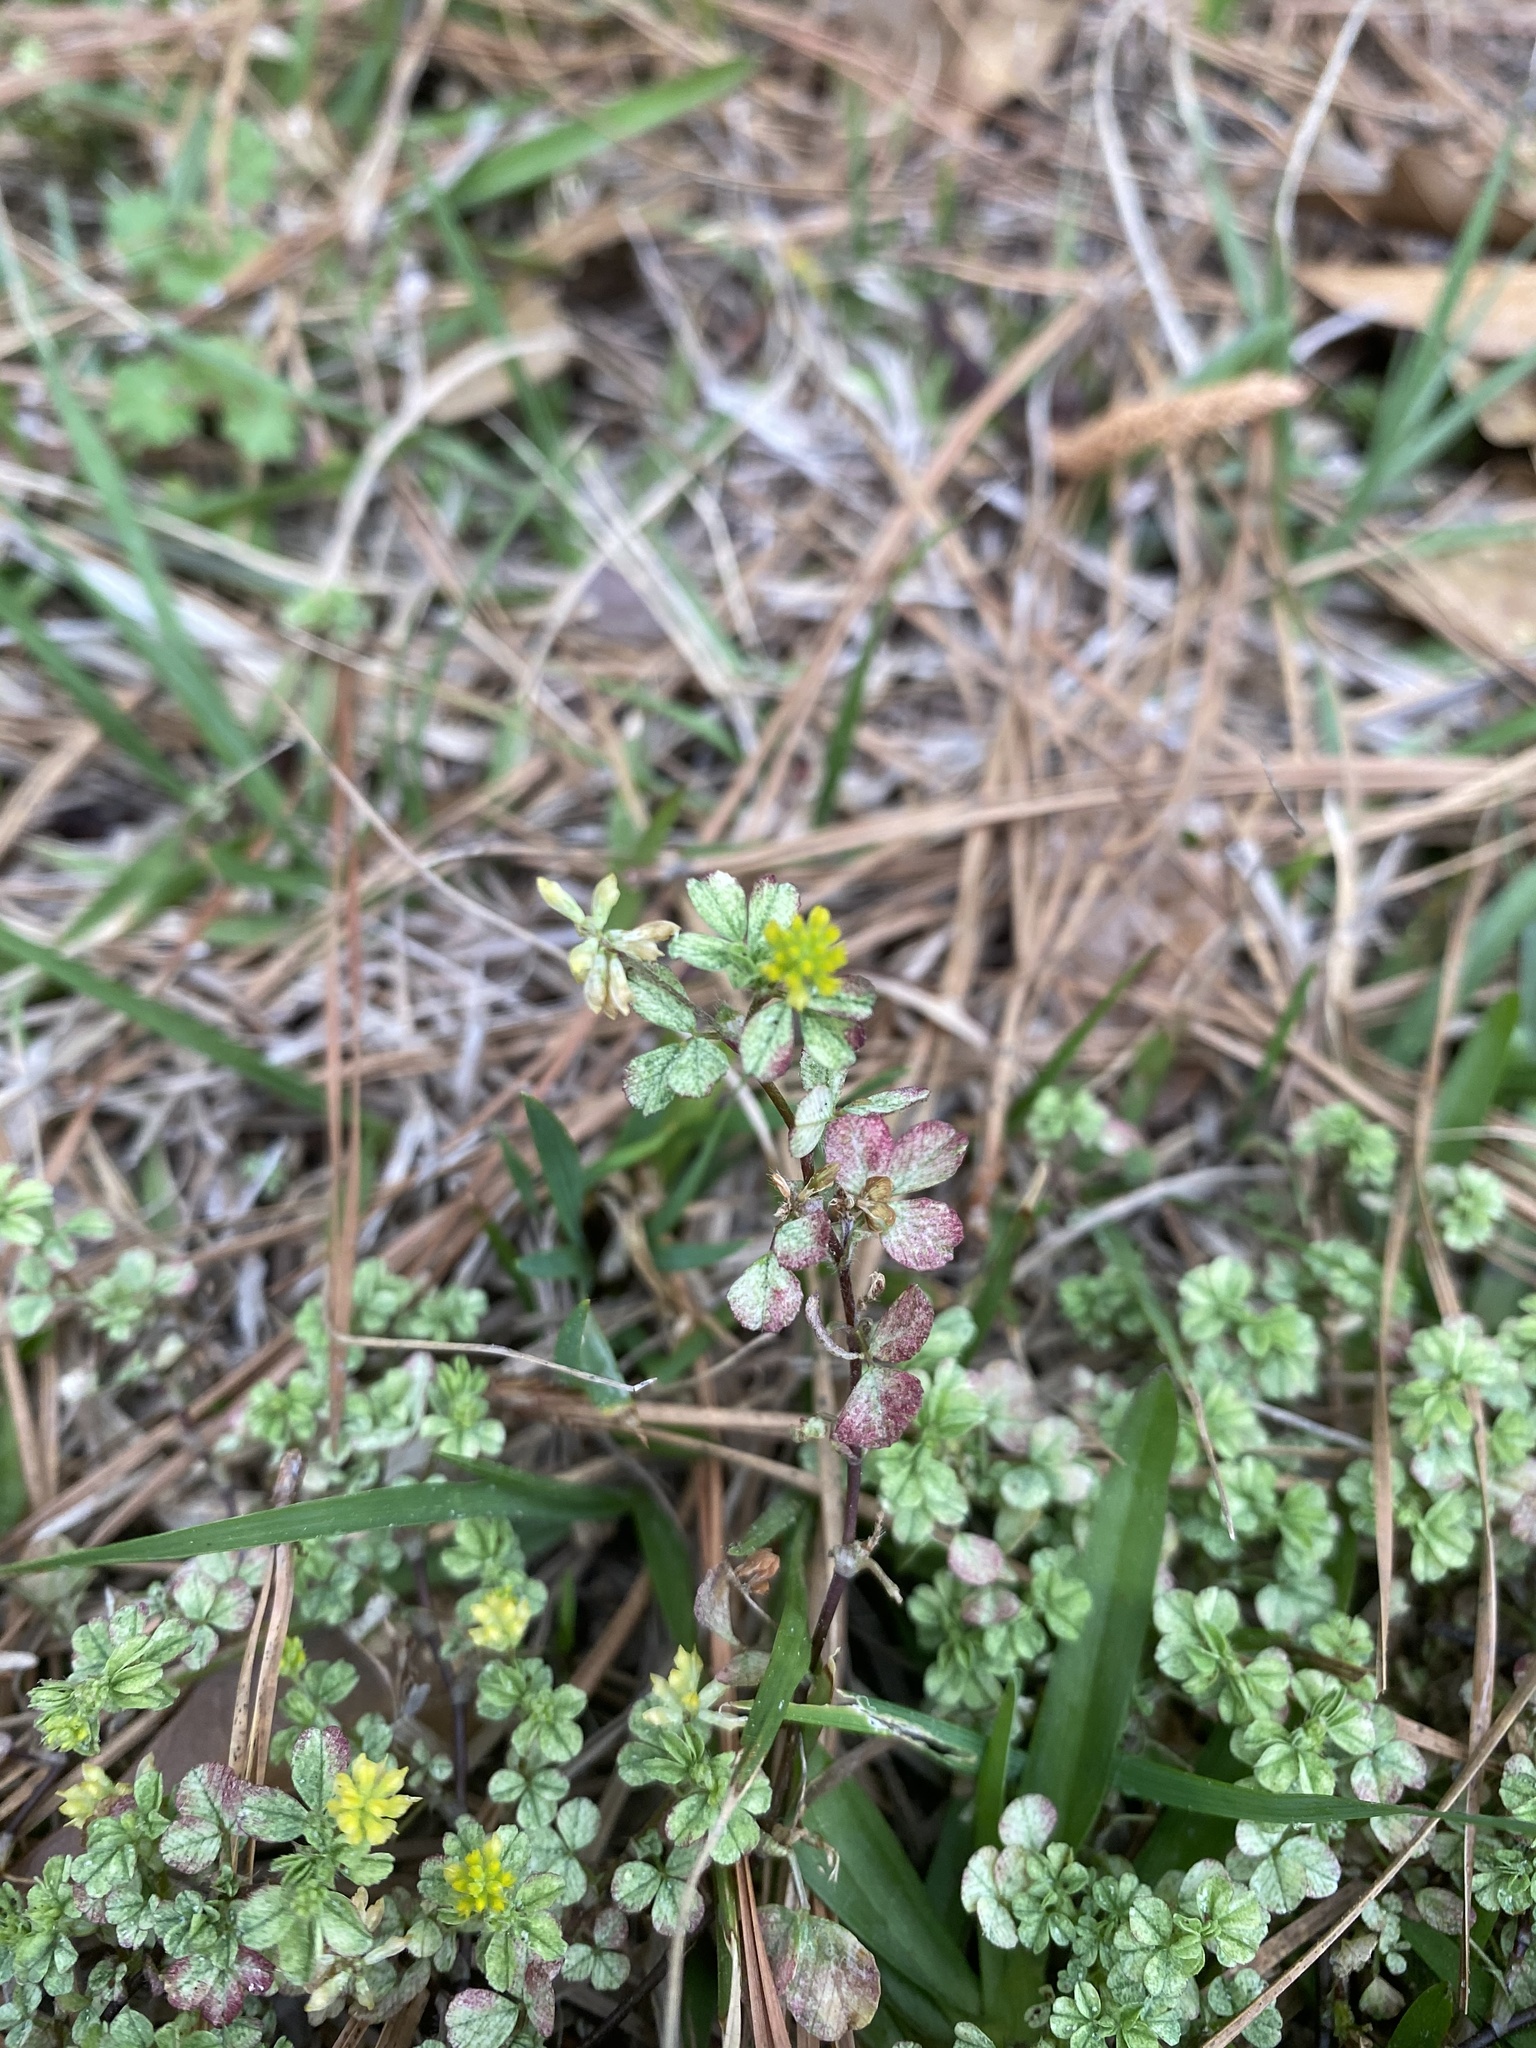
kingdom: Plantae
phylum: Tracheophyta
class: Magnoliopsida
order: Fabales
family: Fabaceae
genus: Trifolium
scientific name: Trifolium dubium
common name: Suckling clover
